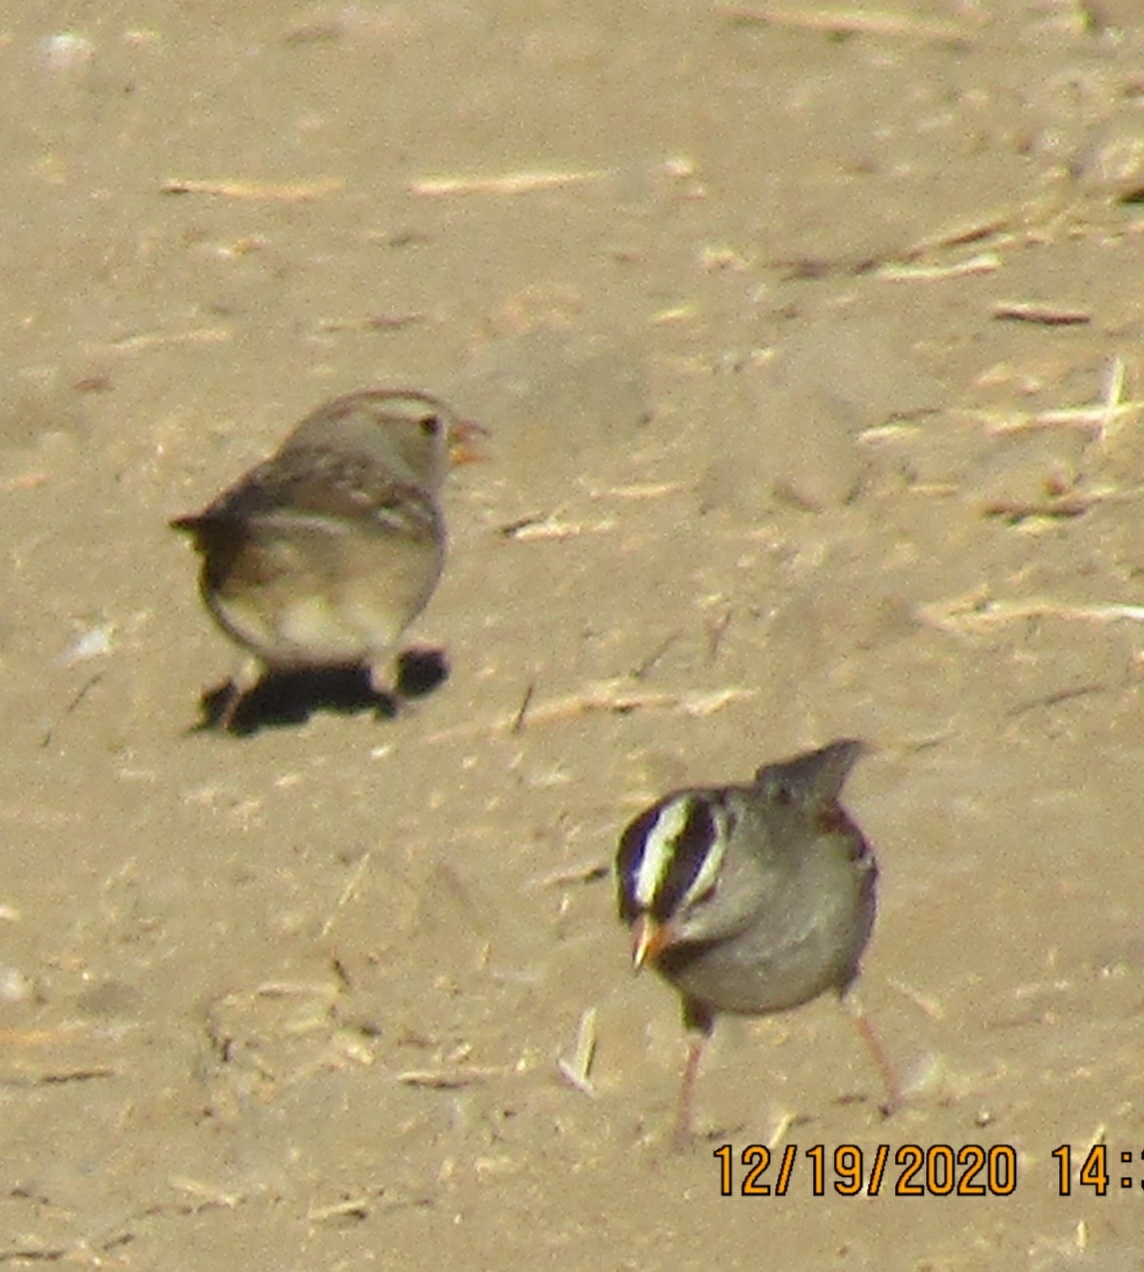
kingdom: Animalia
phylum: Chordata
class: Aves
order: Passeriformes
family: Passerellidae
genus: Zonotrichia
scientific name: Zonotrichia leucophrys
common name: White-crowned sparrow
